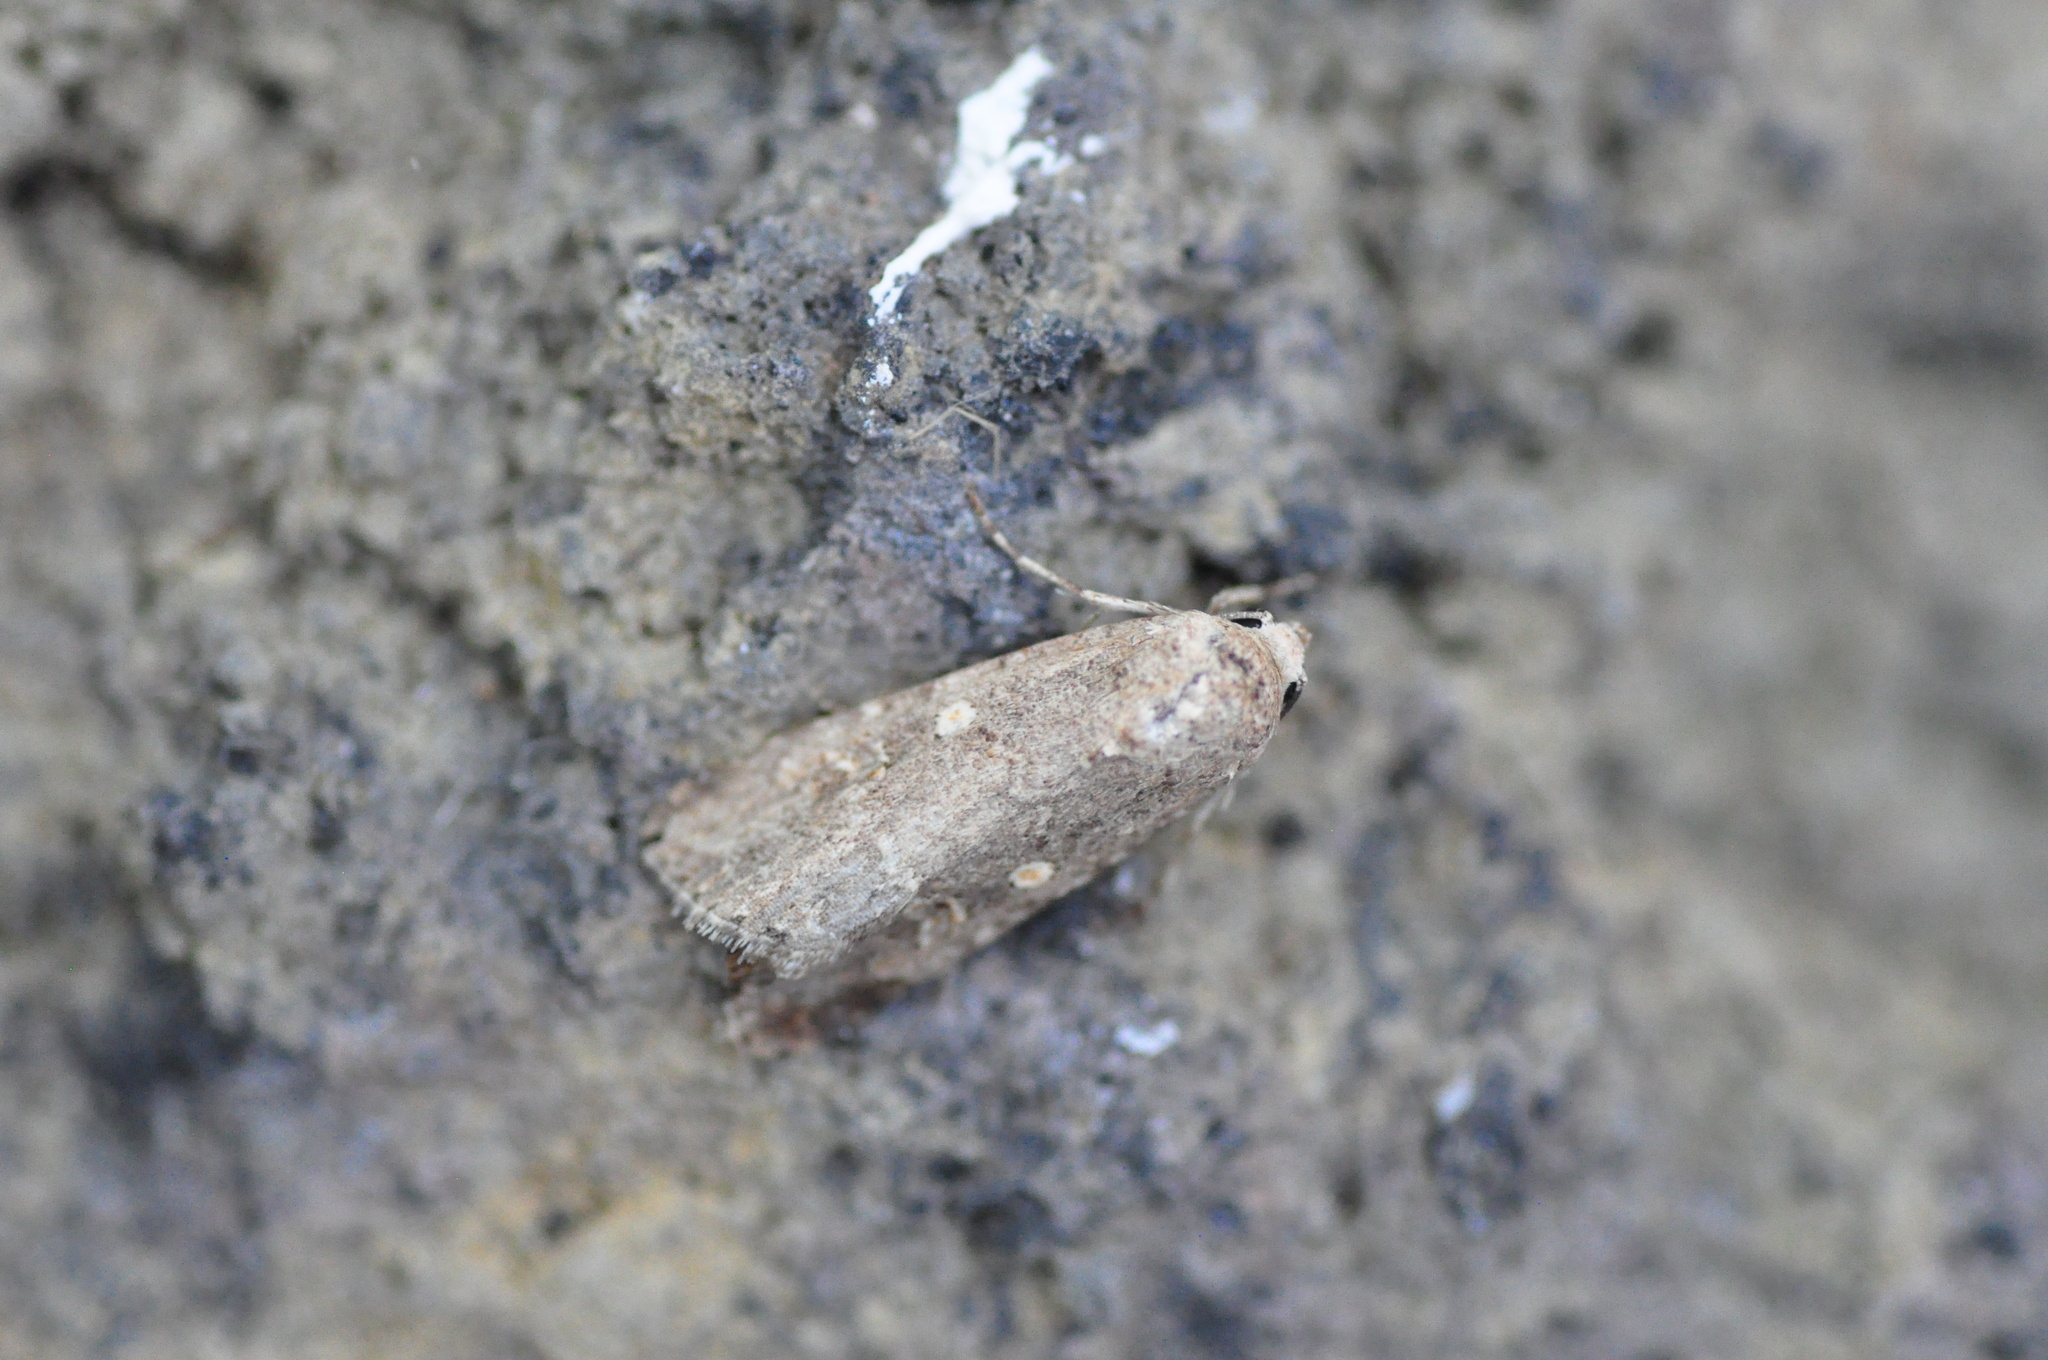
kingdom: Animalia
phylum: Arthropoda
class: Insecta
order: Lepidoptera
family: Noctuidae
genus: Spodoptera
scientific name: Spodoptera exigua
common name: Beet armyworm
